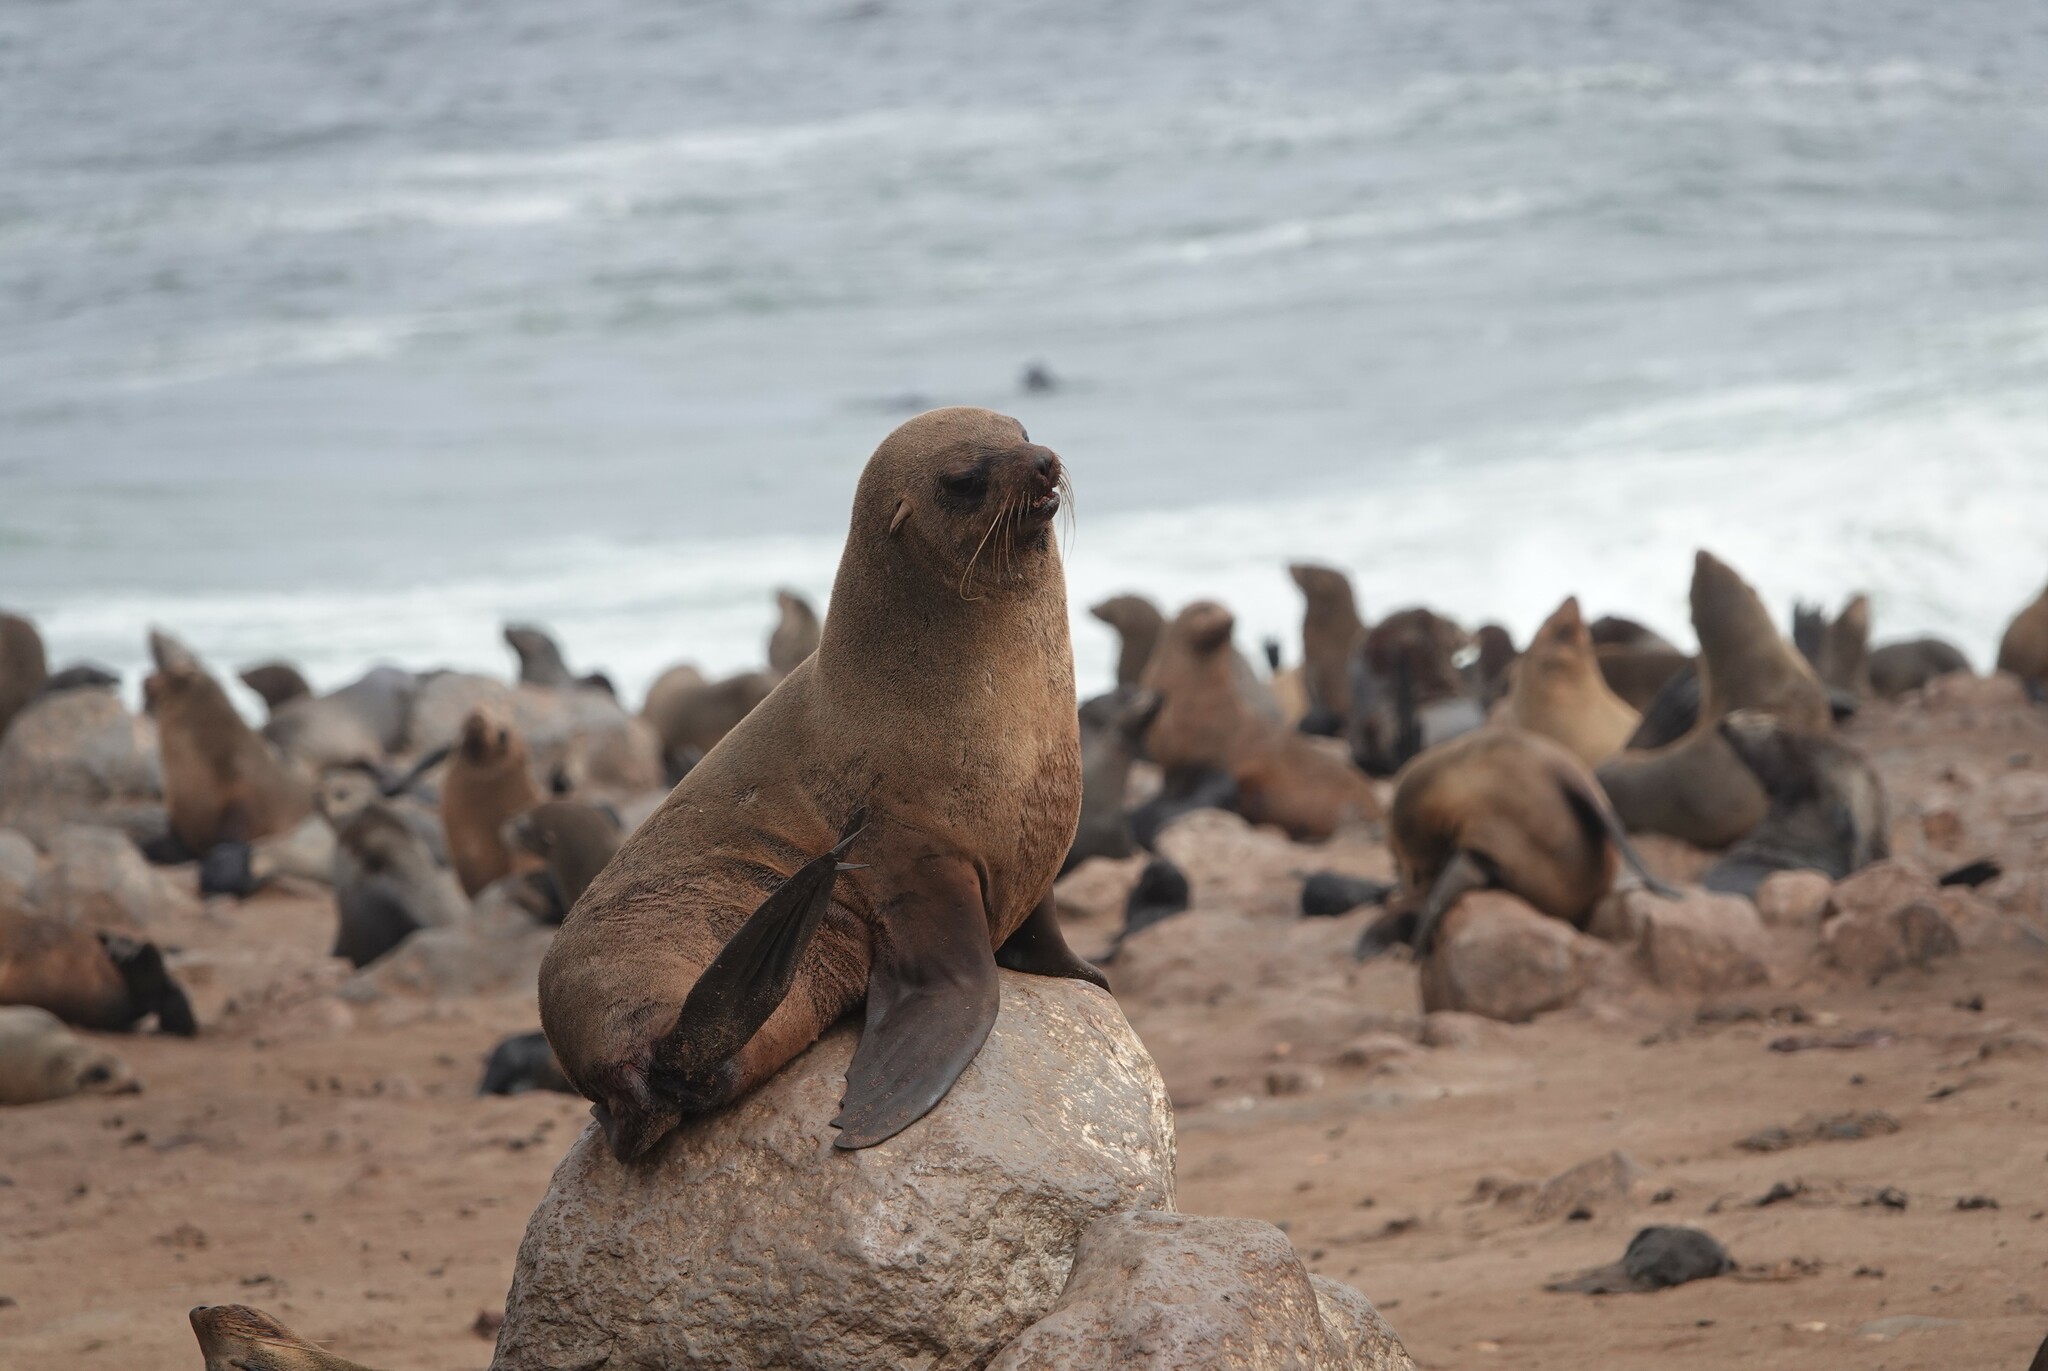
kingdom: Animalia
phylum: Chordata
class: Mammalia
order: Carnivora
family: Otariidae
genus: Arctocephalus
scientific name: Arctocephalus pusillus
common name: Brown fur seal
